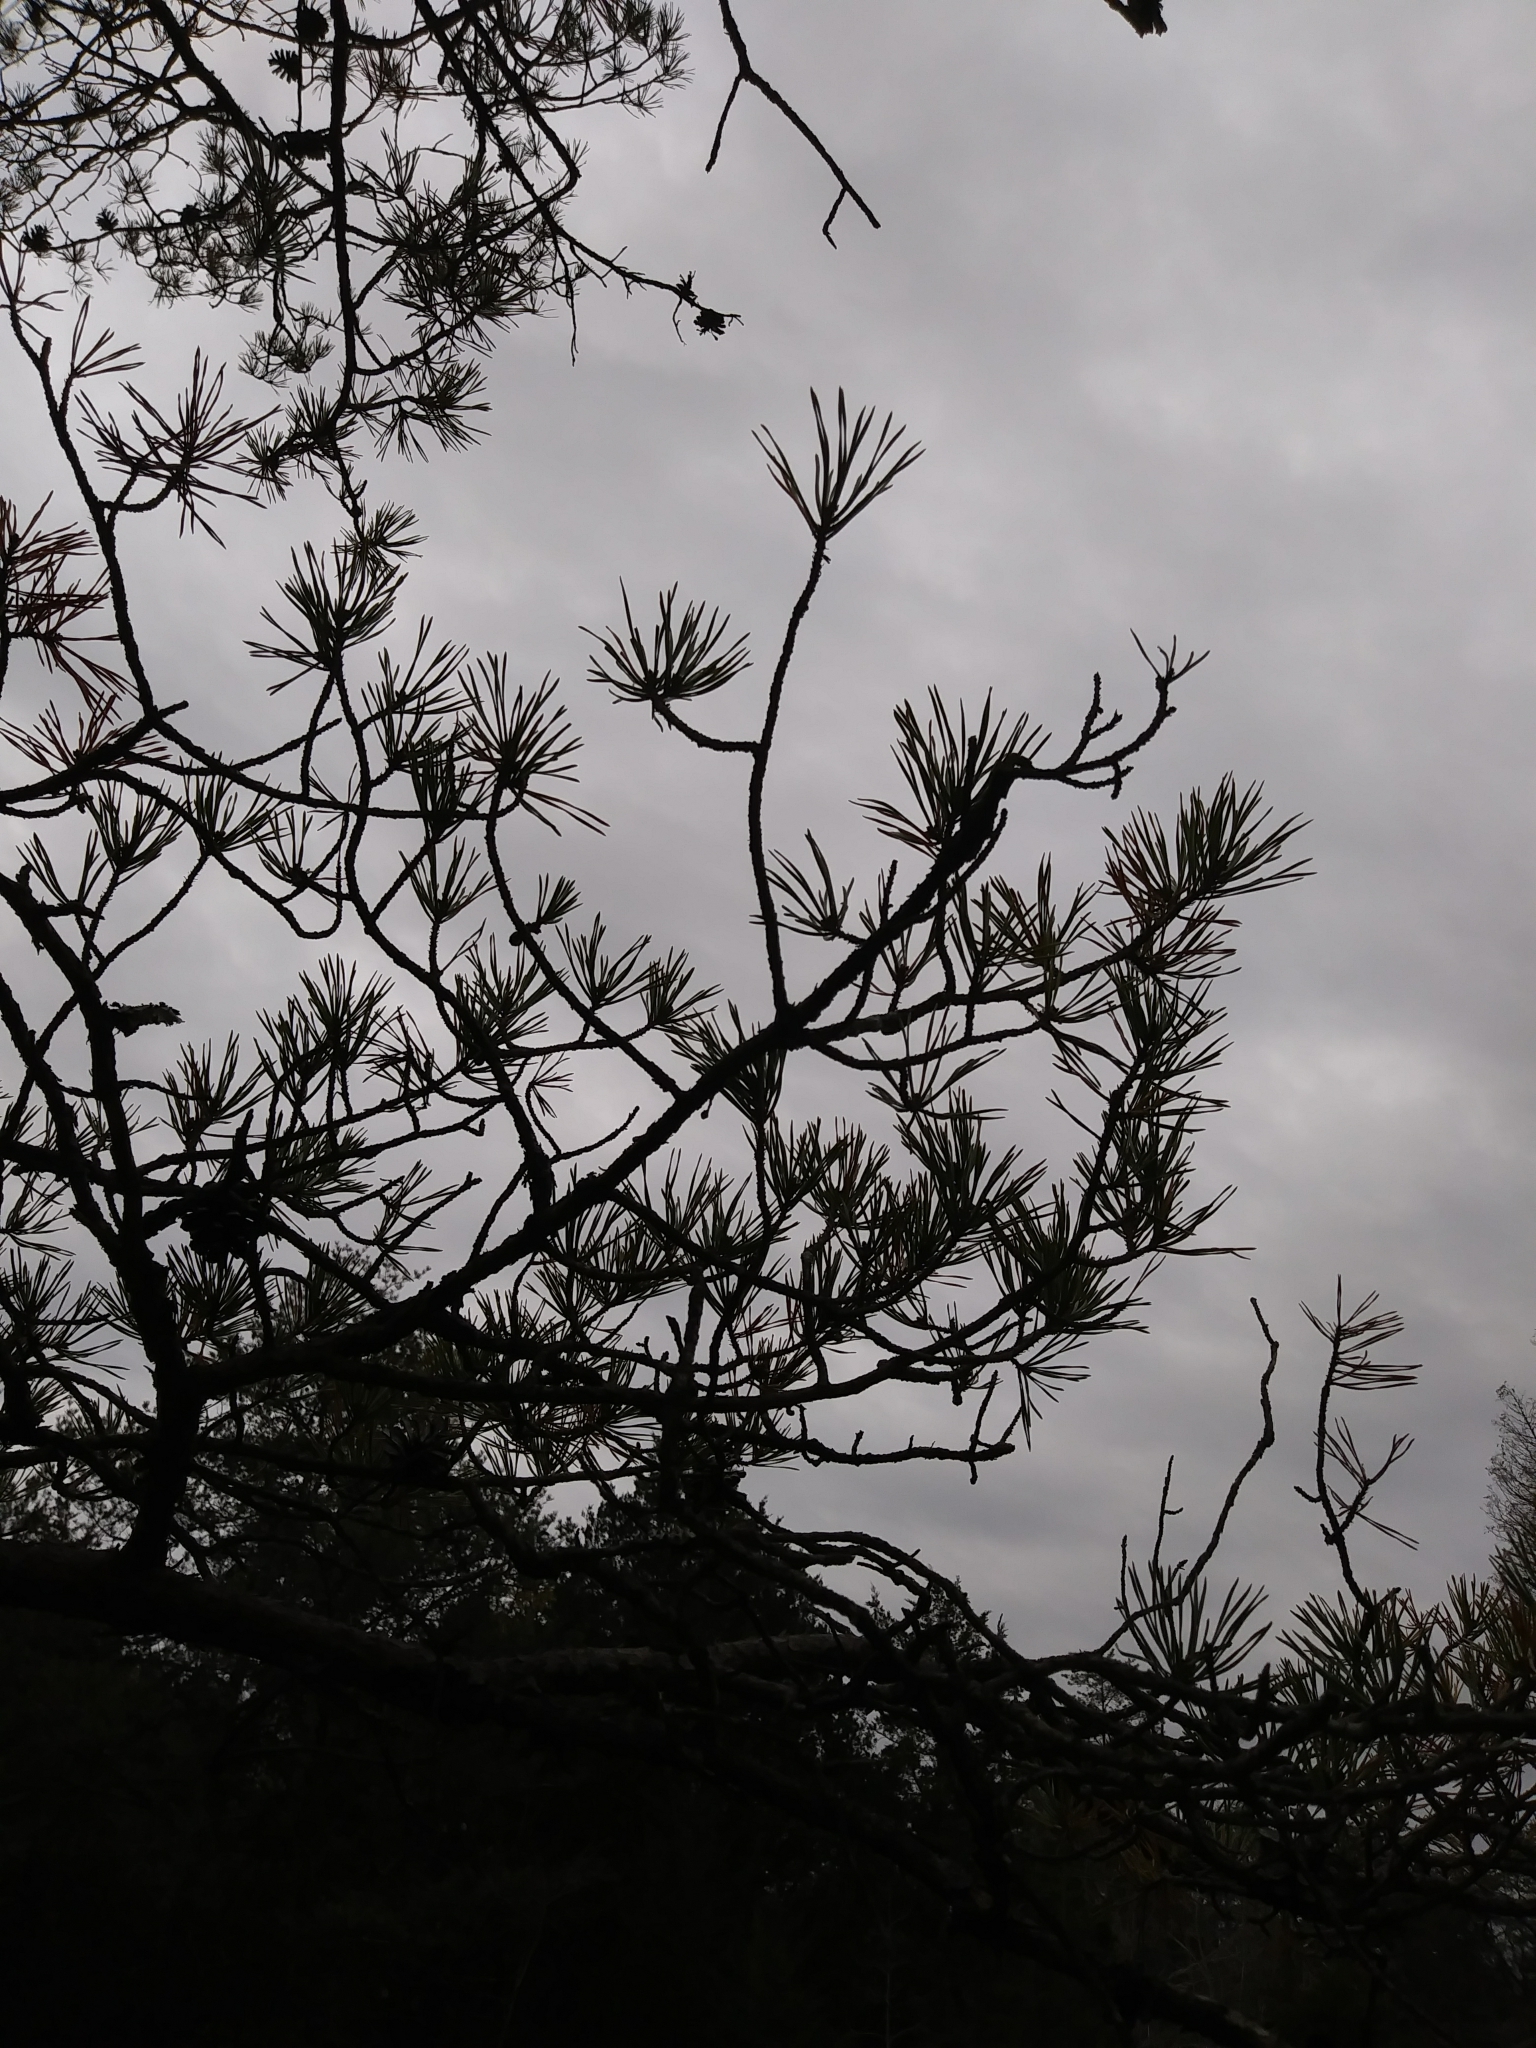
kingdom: Plantae
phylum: Tracheophyta
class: Pinopsida
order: Pinales
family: Pinaceae
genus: Pinus
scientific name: Pinus virginiana
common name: Scrub pine
